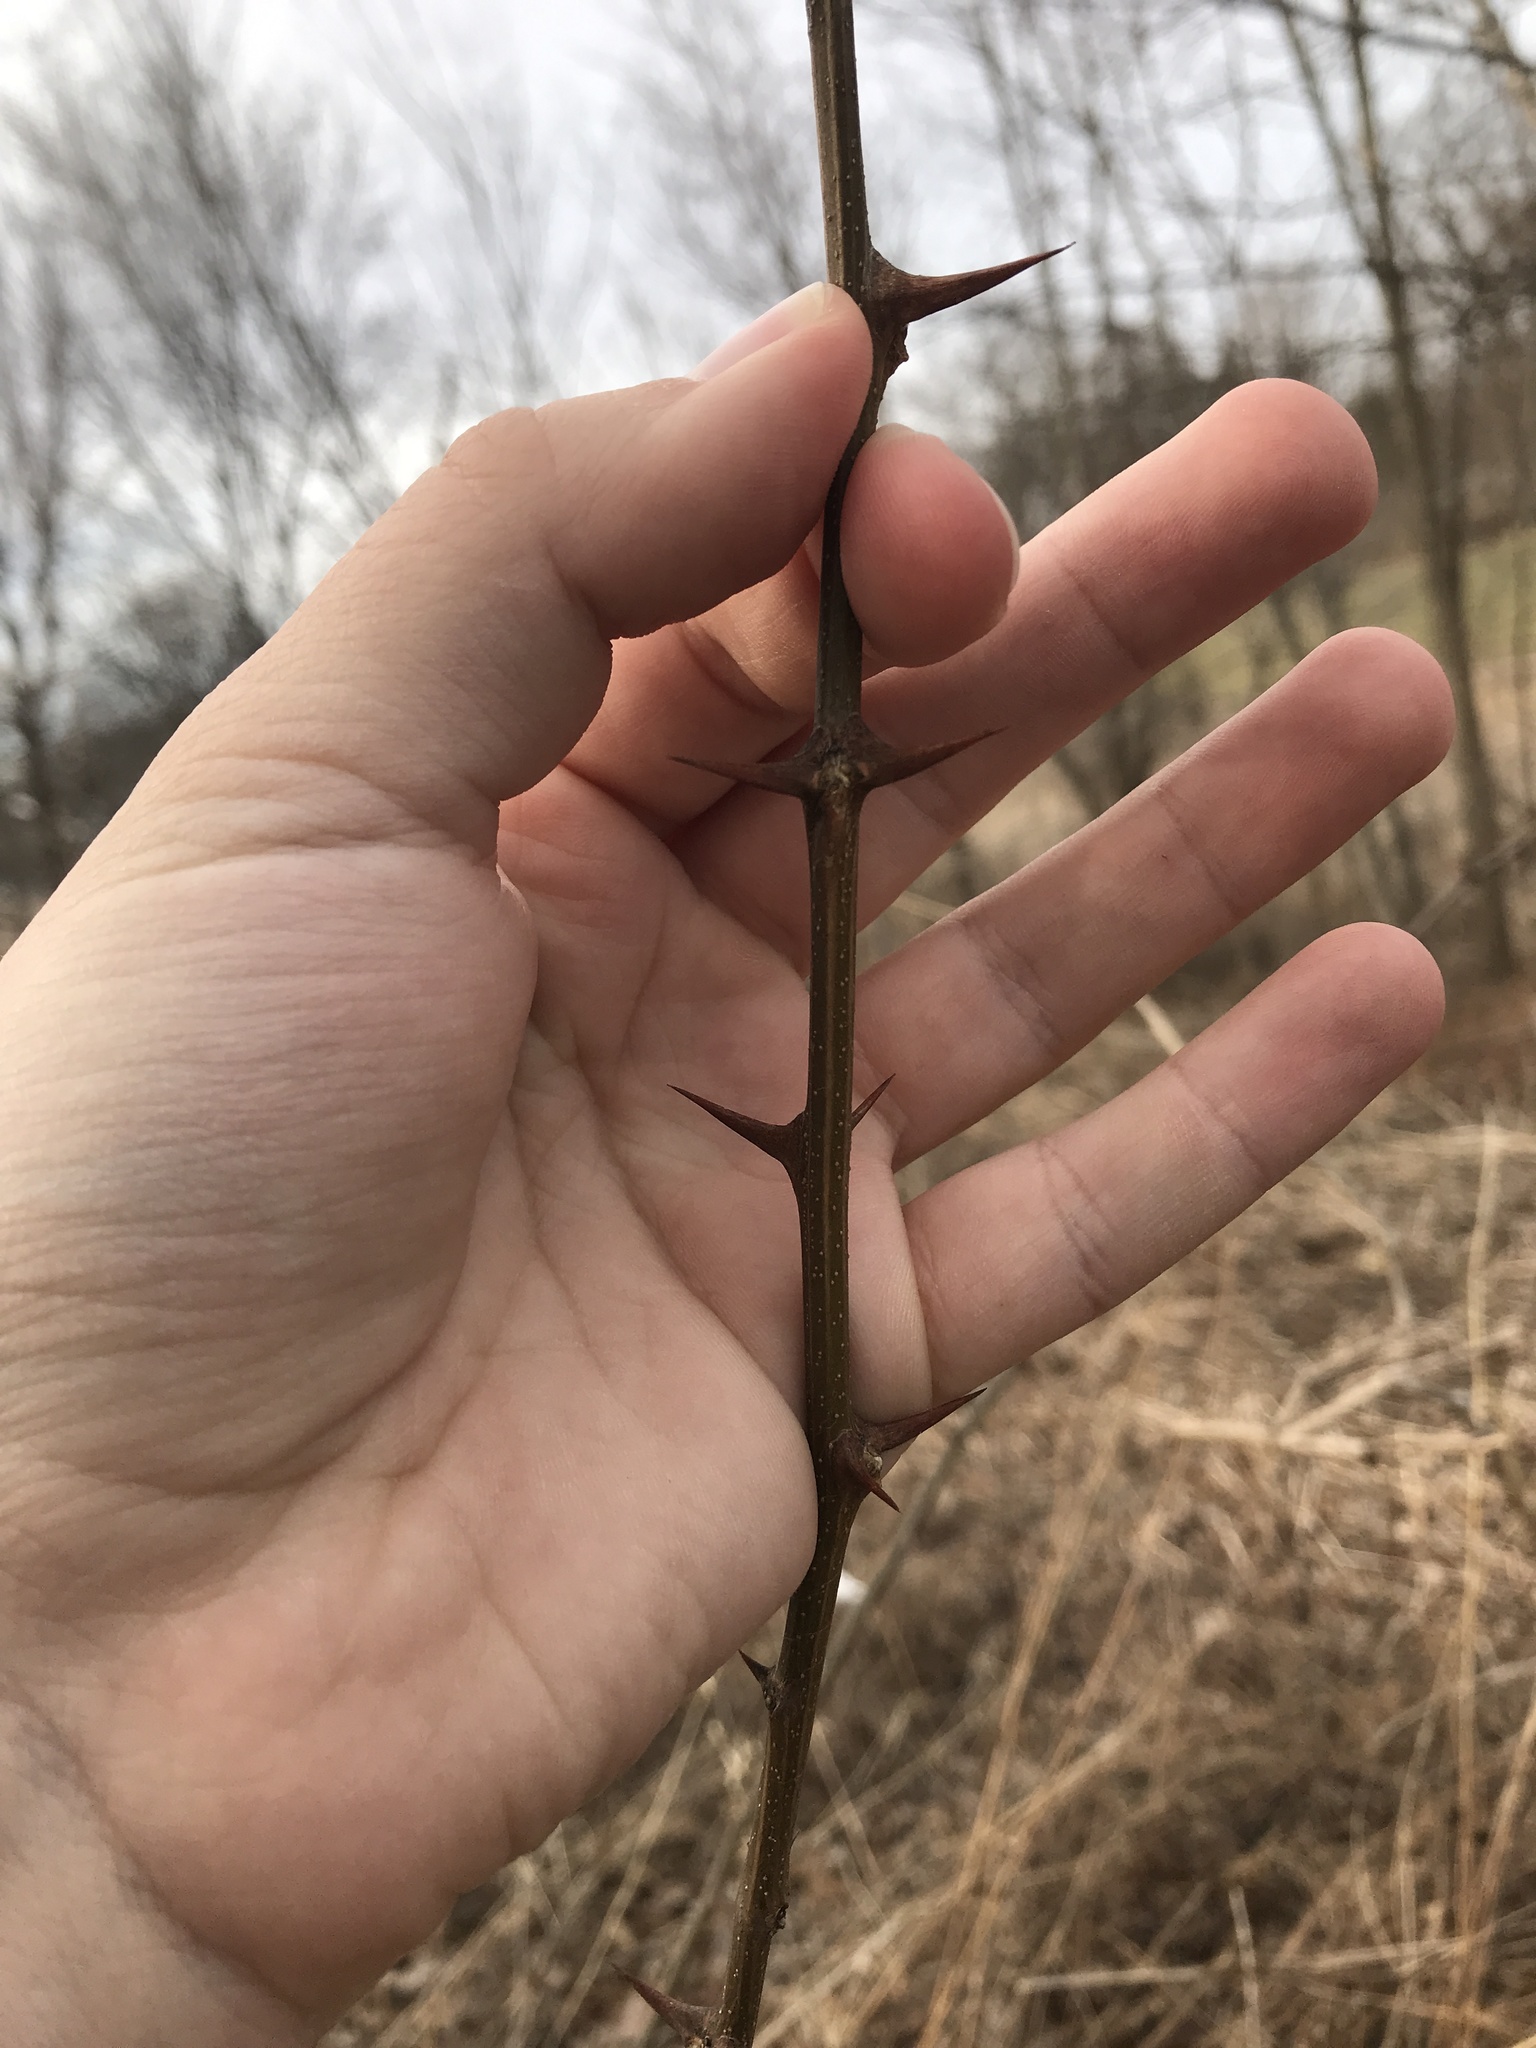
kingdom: Plantae
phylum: Tracheophyta
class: Magnoliopsida
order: Fabales
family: Fabaceae
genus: Robinia
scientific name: Robinia pseudoacacia
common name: Black locust
